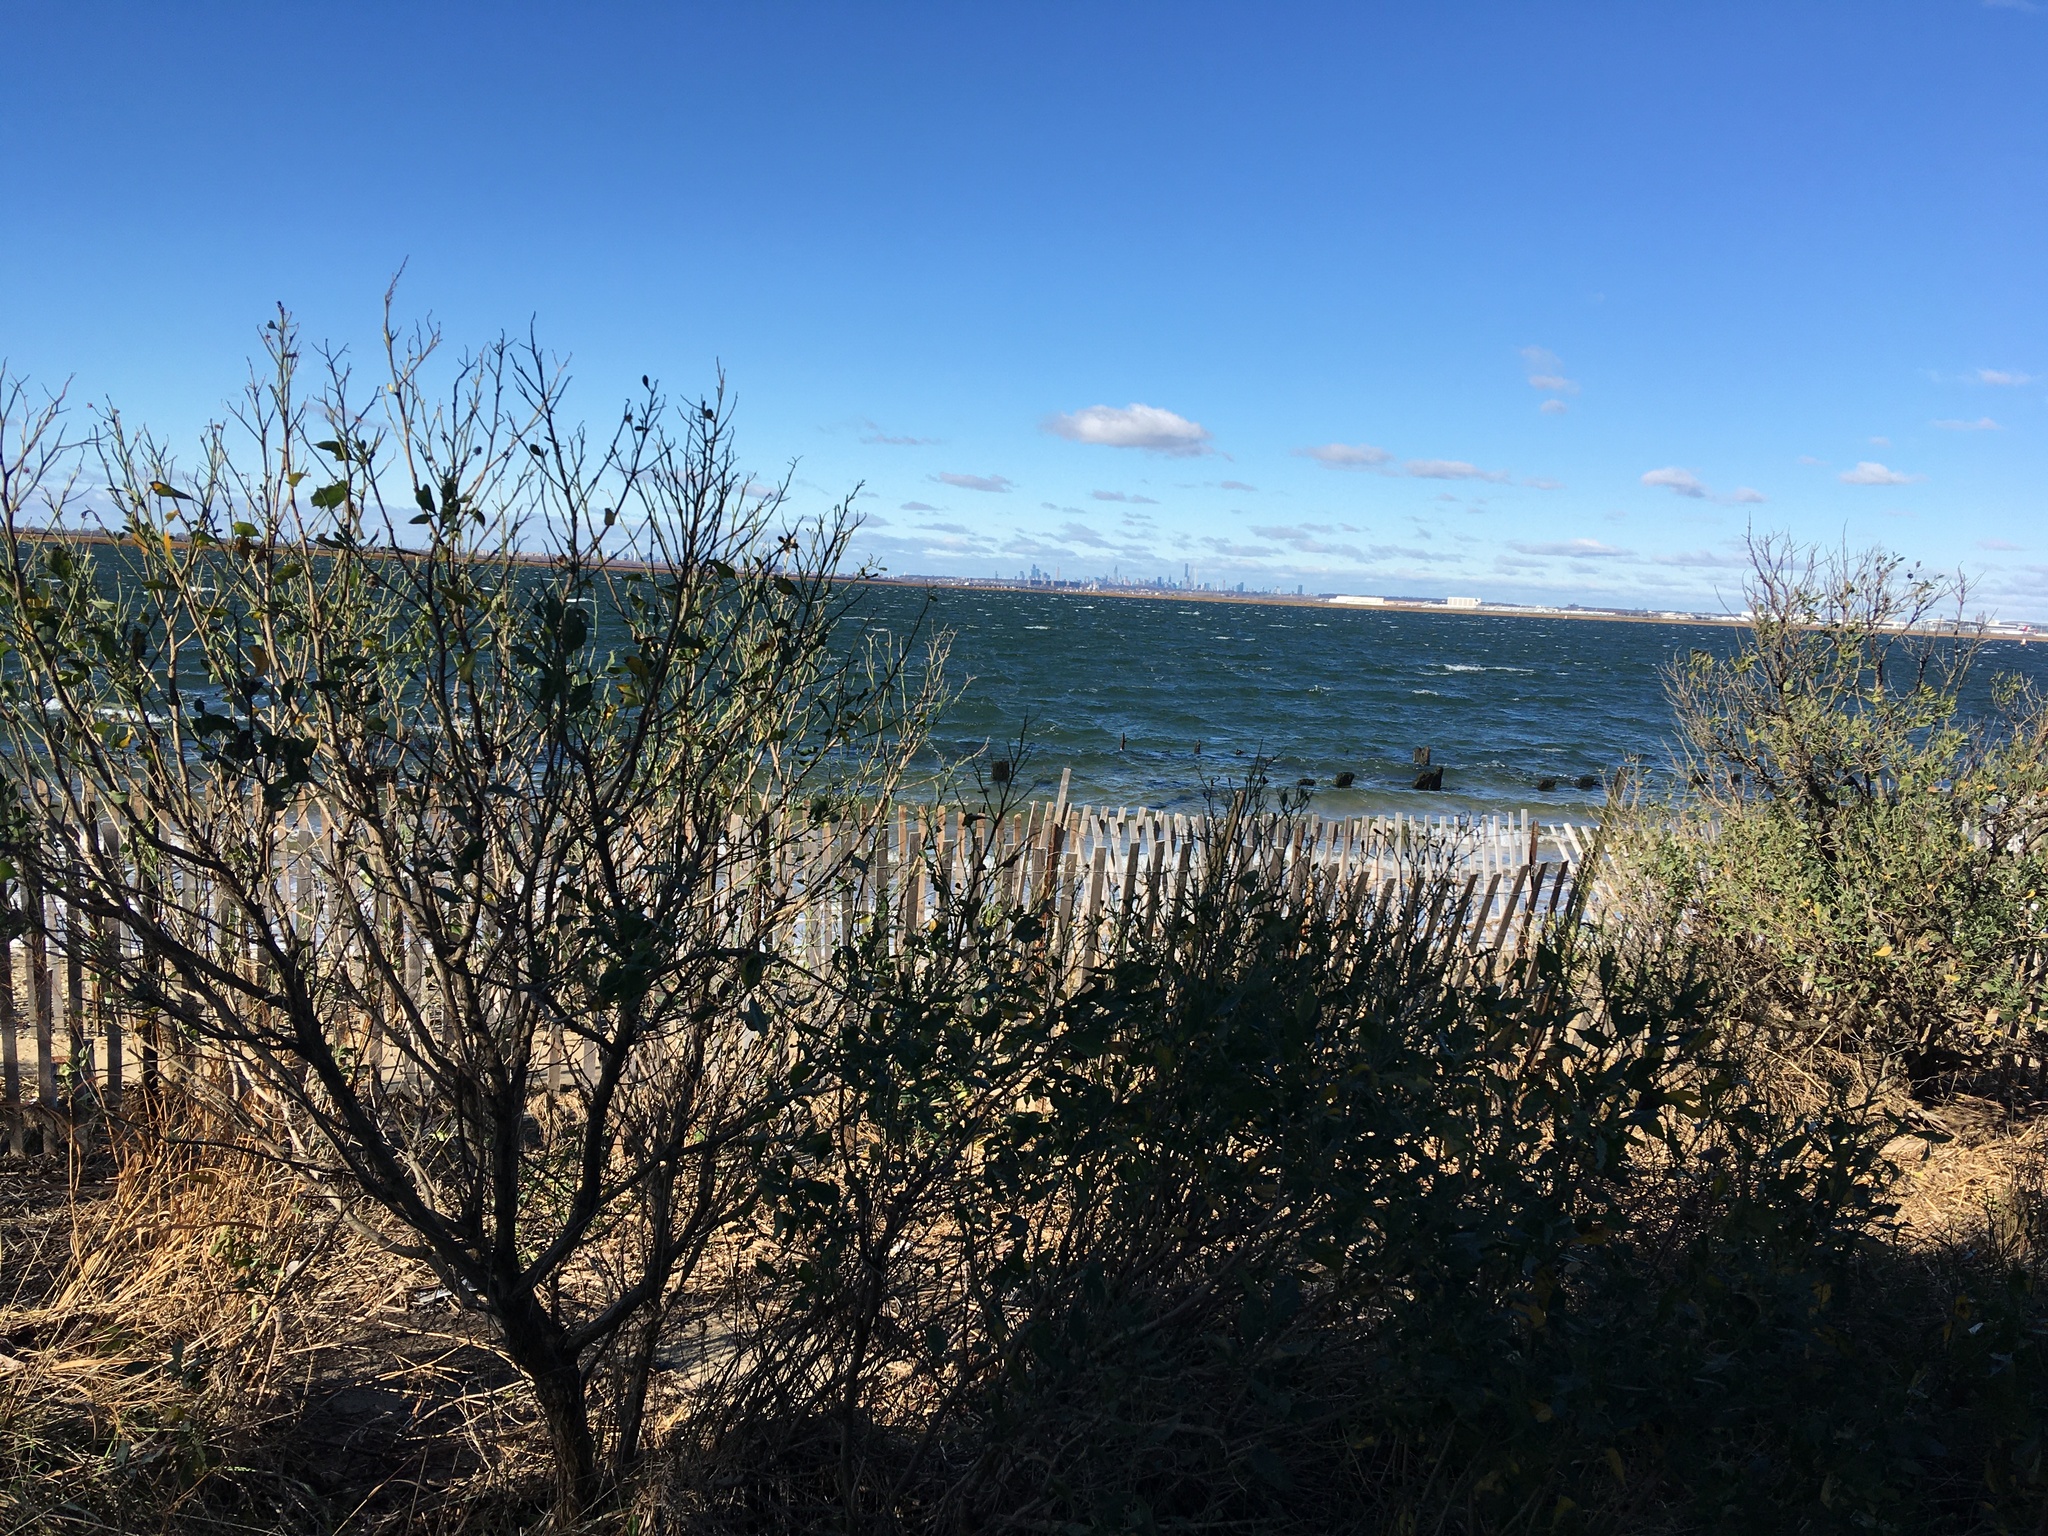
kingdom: Plantae
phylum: Tracheophyta
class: Magnoliopsida
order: Asterales
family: Asteraceae
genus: Baccharis
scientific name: Baccharis halimifolia
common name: Eastern baccharis
